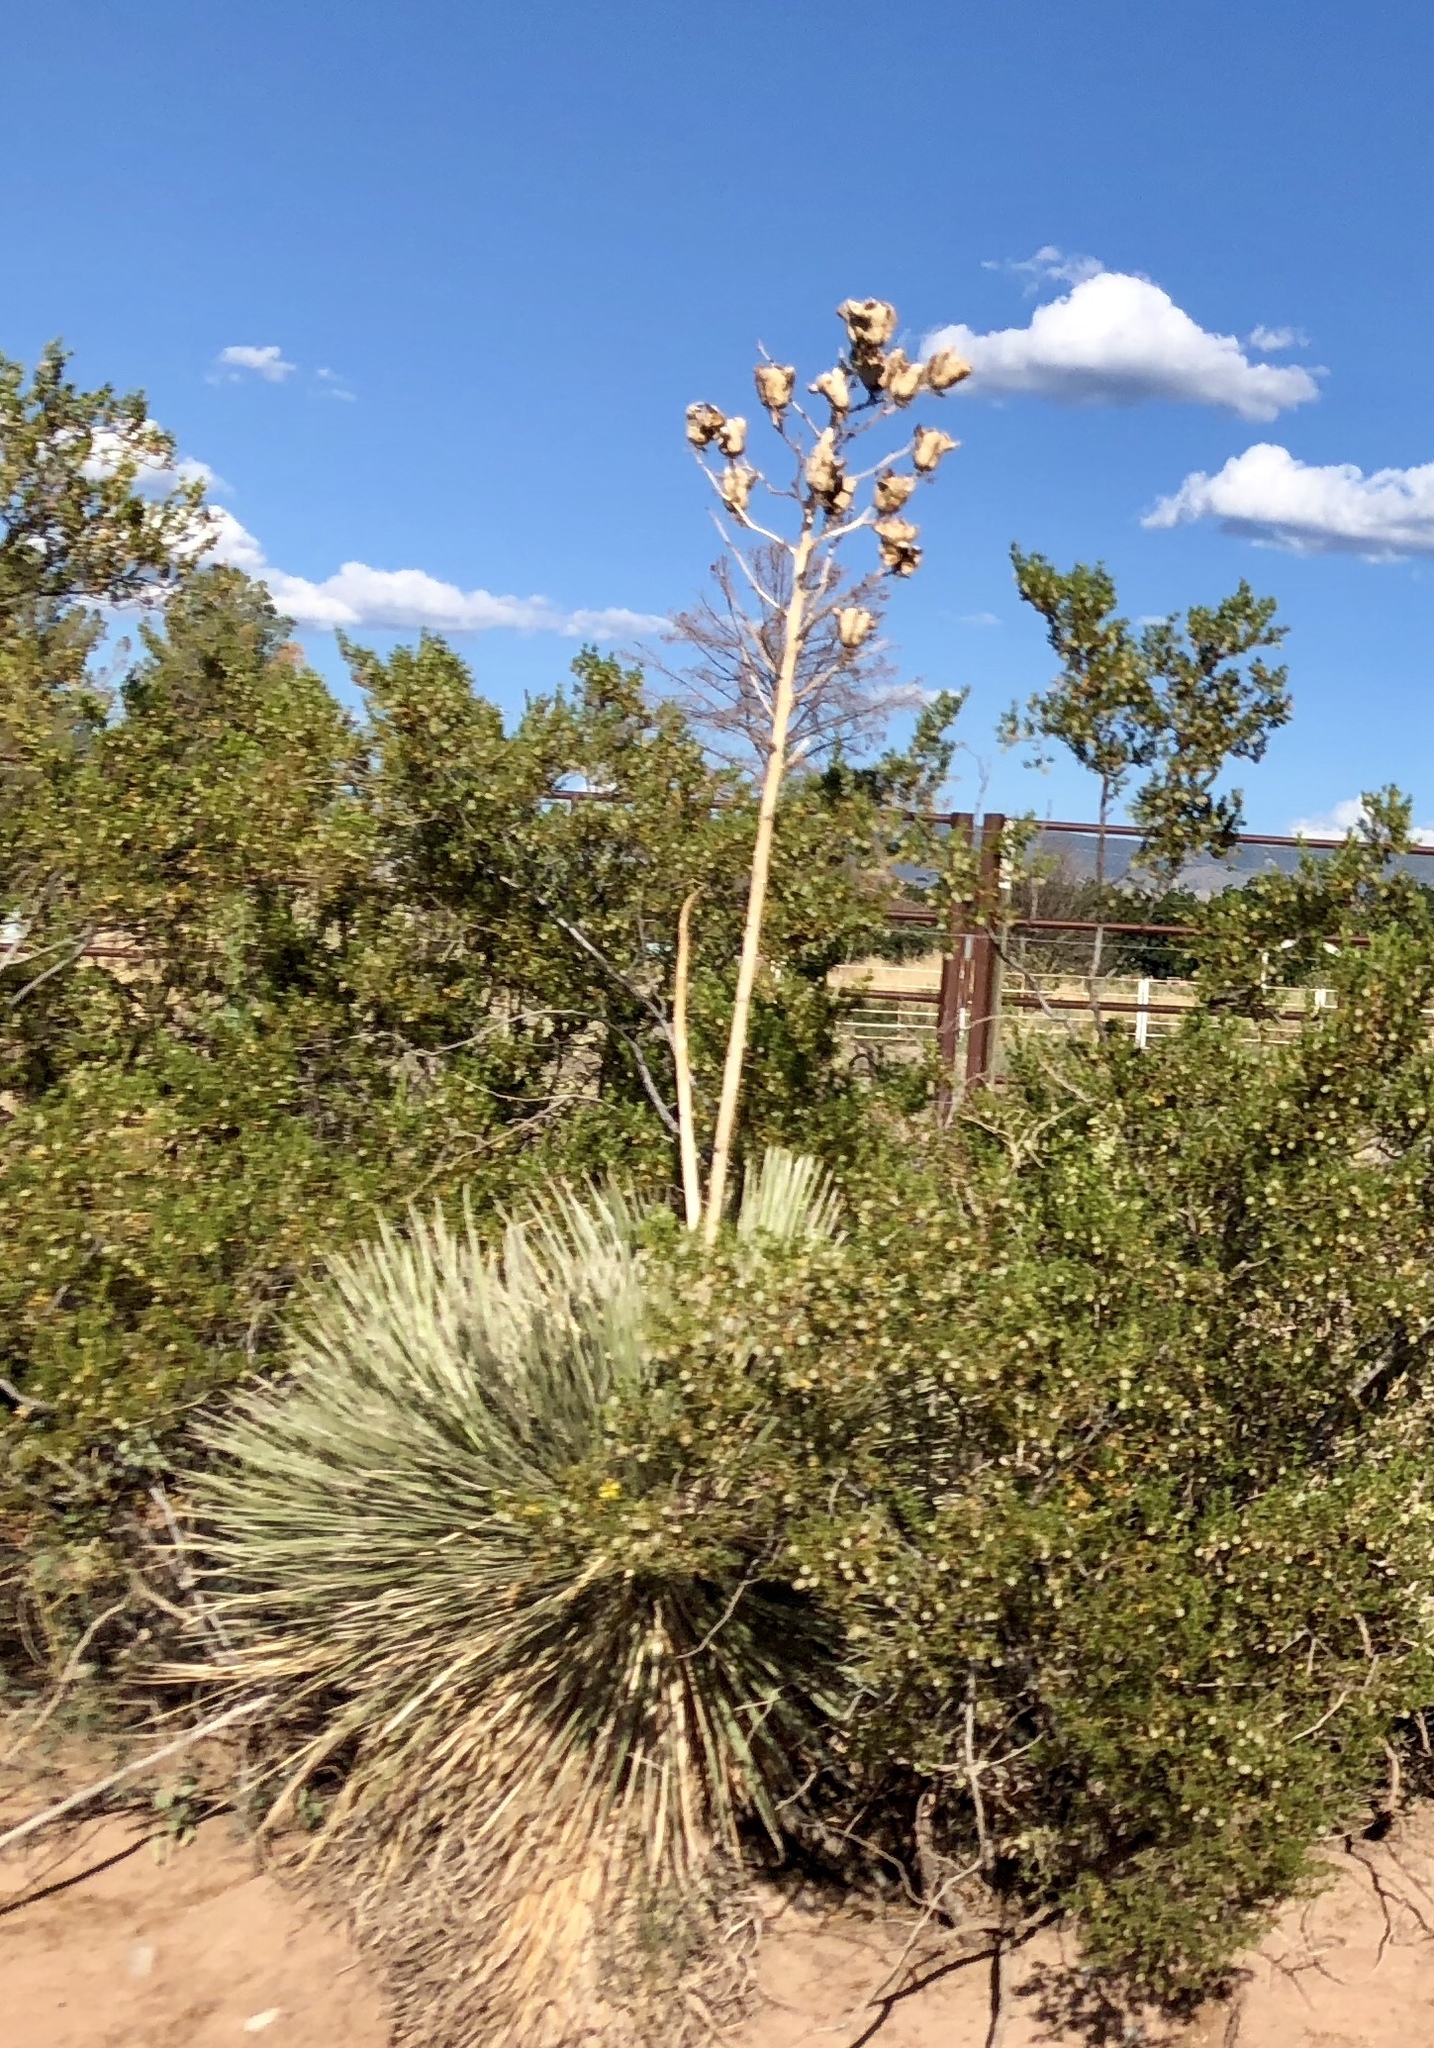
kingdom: Plantae
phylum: Tracheophyta
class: Liliopsida
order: Asparagales
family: Asparagaceae
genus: Yucca
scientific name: Yucca elata
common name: Palmella
